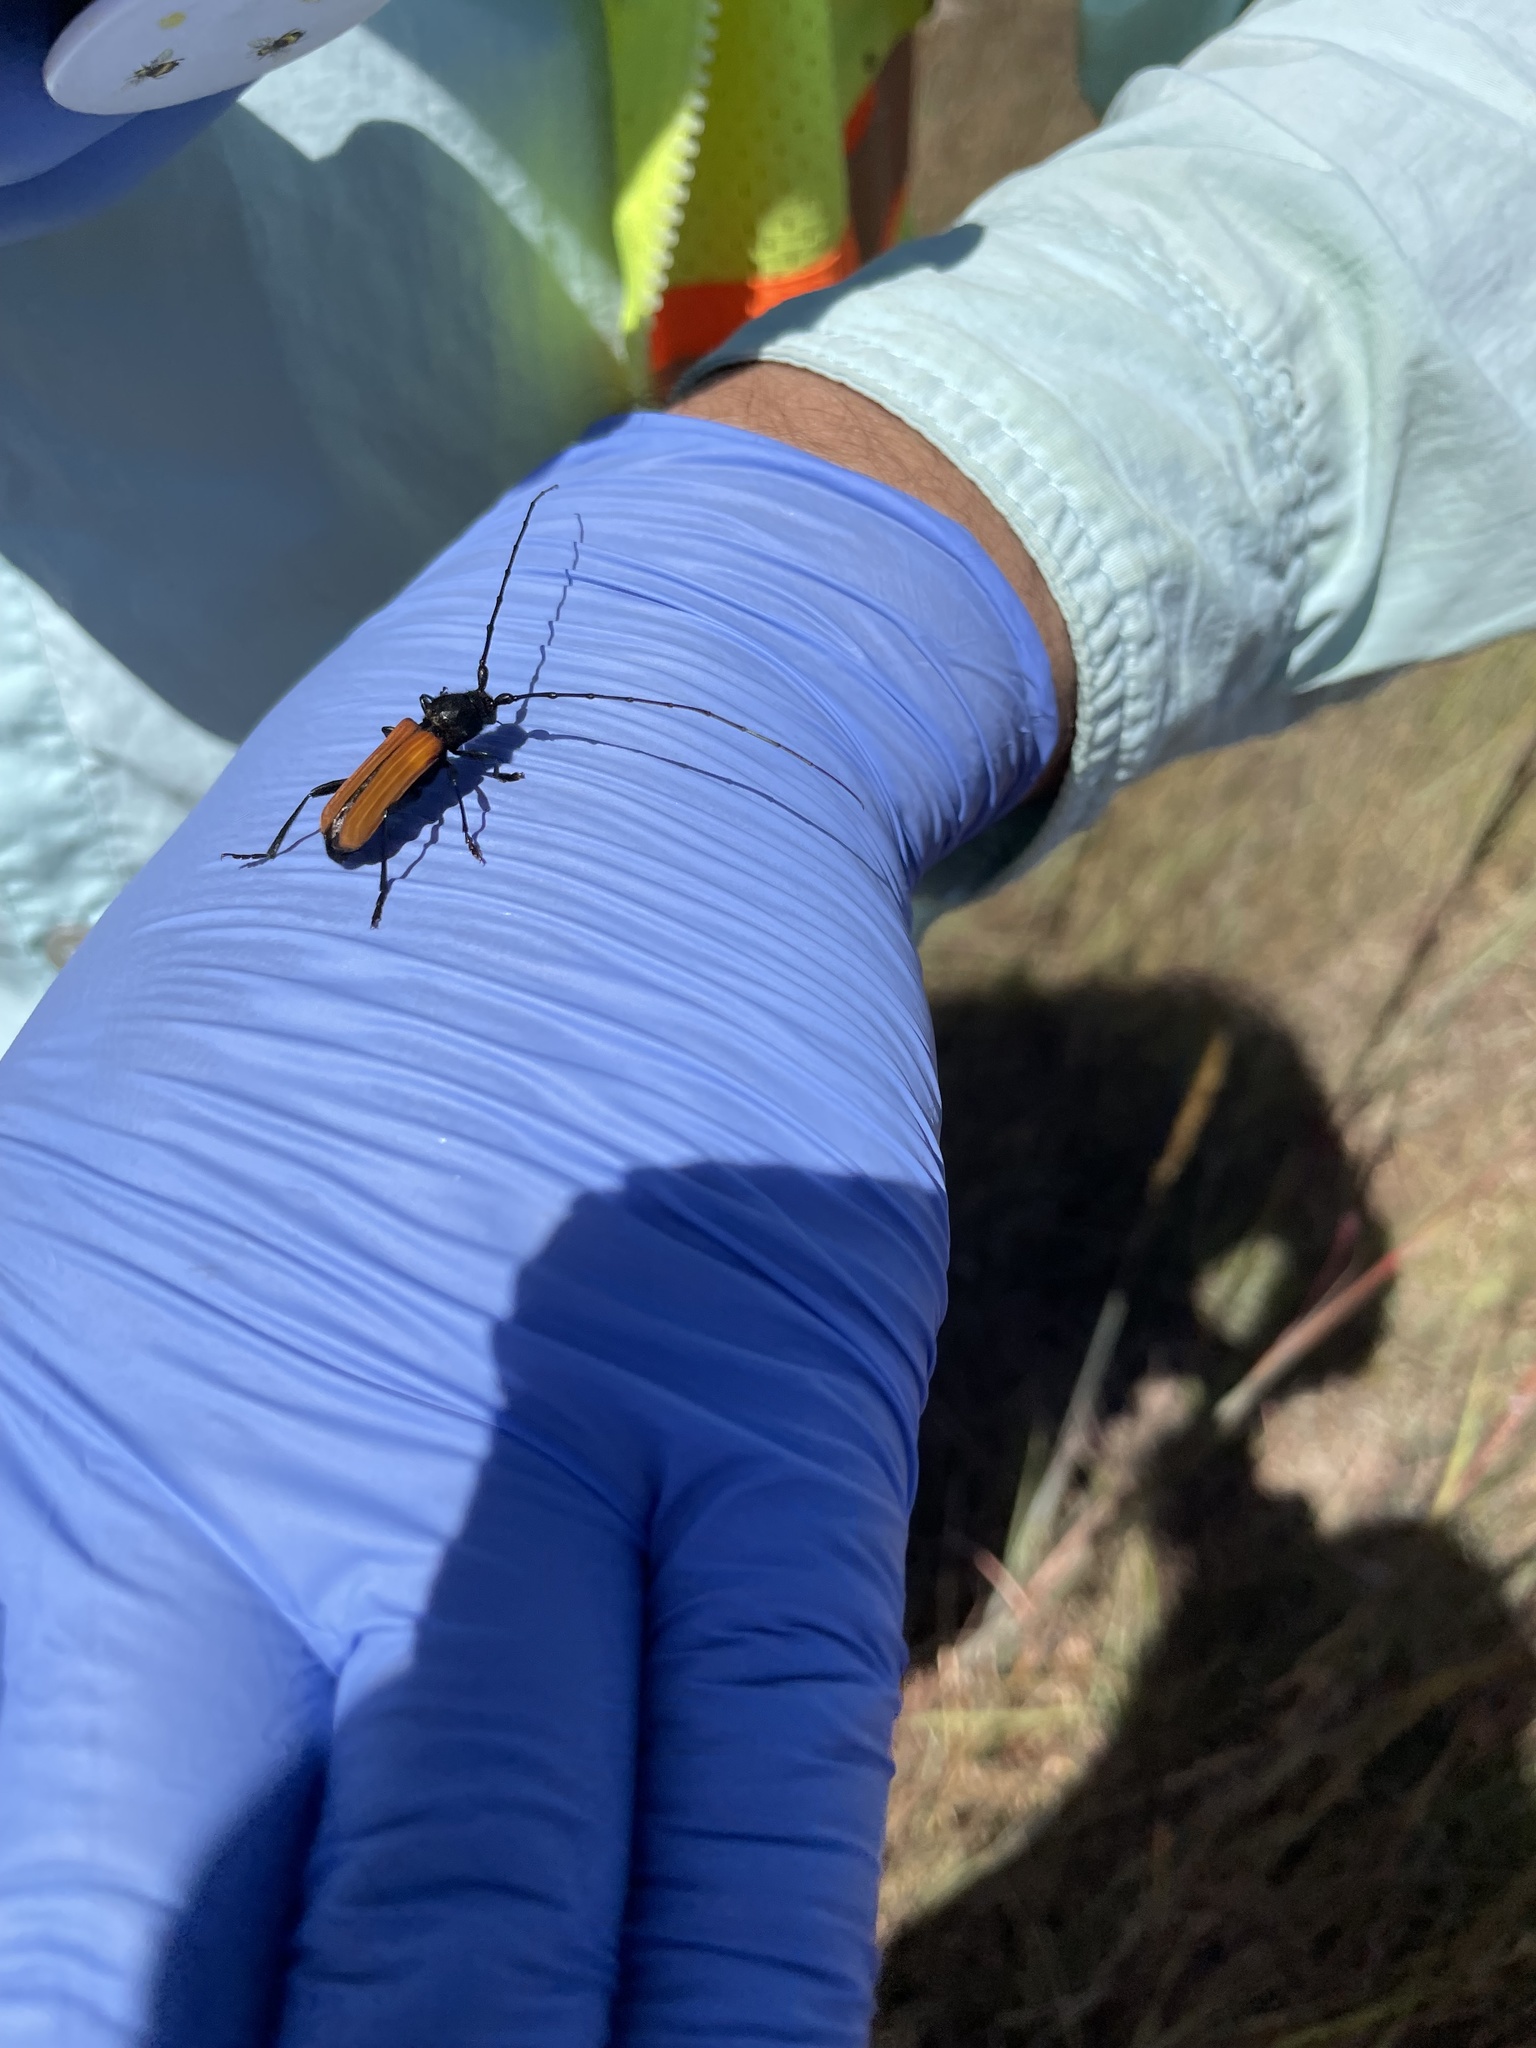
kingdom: Animalia
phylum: Arthropoda
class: Insecta
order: Coleoptera
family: Cerambycidae
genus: Tragidion
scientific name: Tragidion coquus
